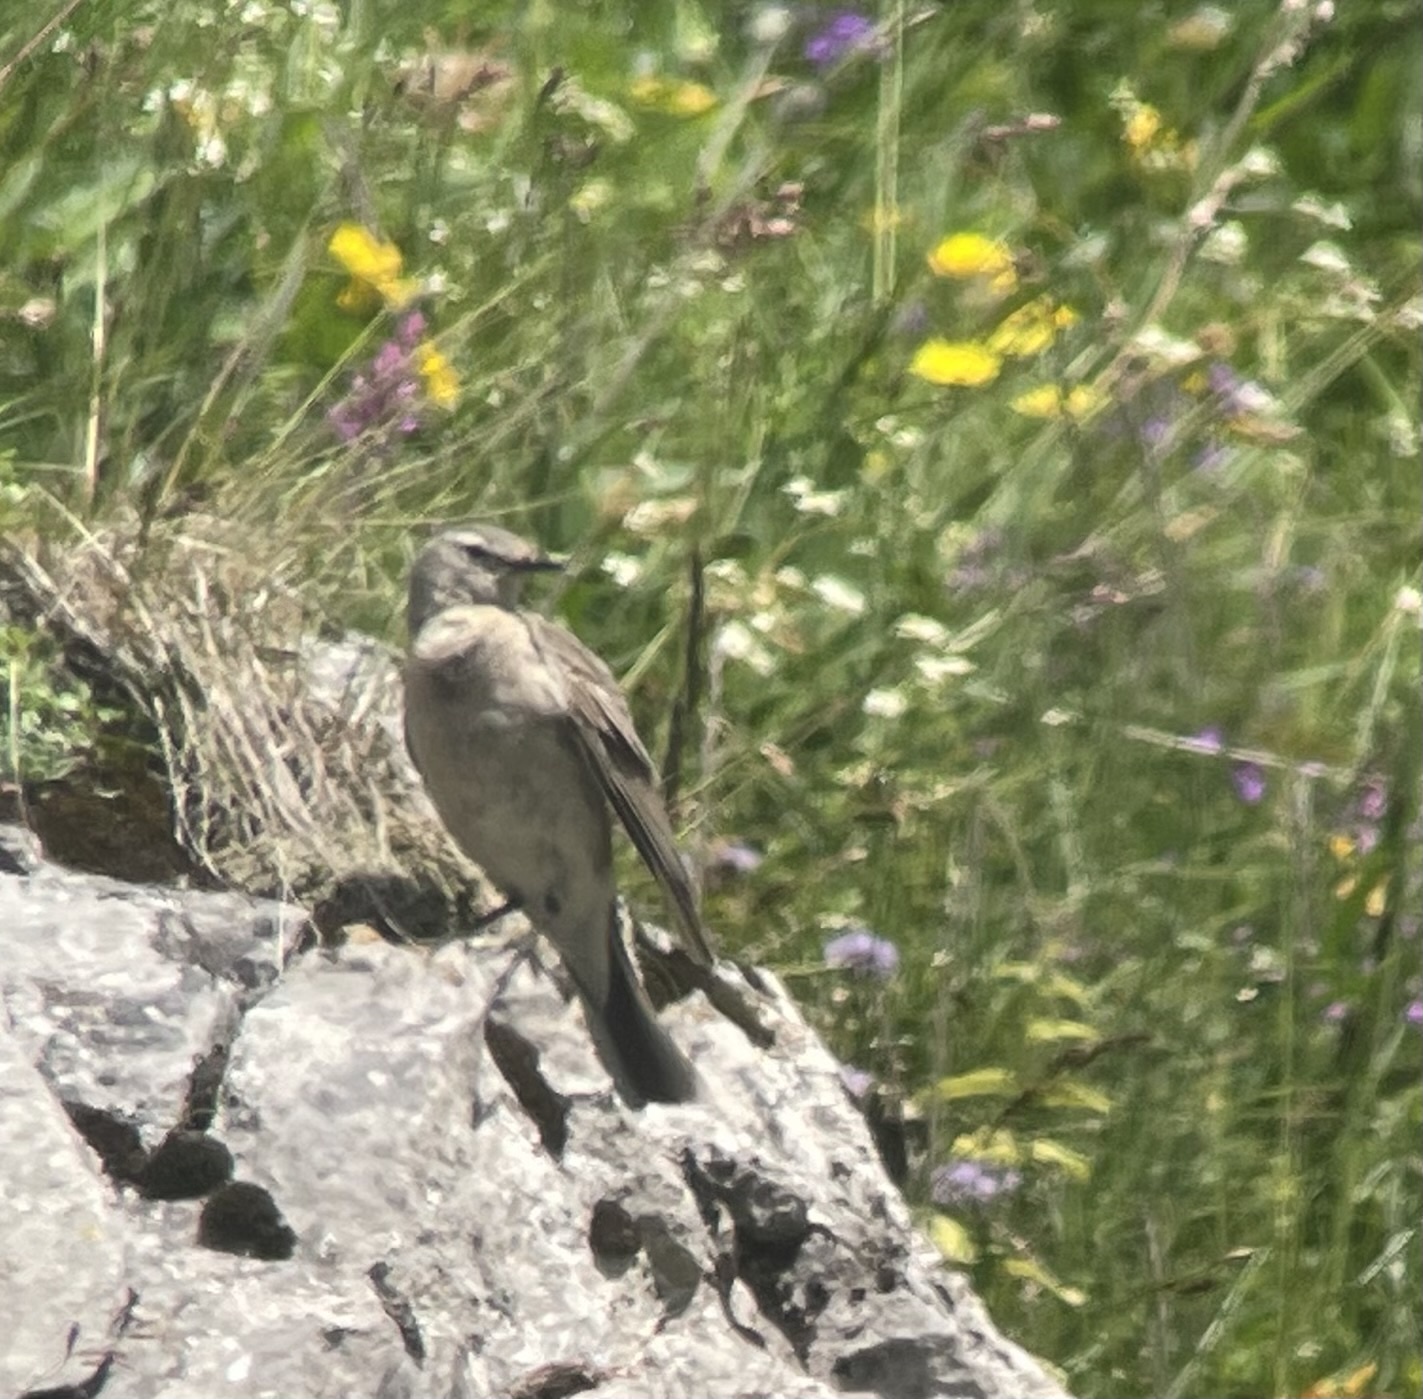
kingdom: Animalia
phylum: Chordata
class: Aves
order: Passeriformes
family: Motacillidae
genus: Anthus
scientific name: Anthus spinoletta
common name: Water pipit
